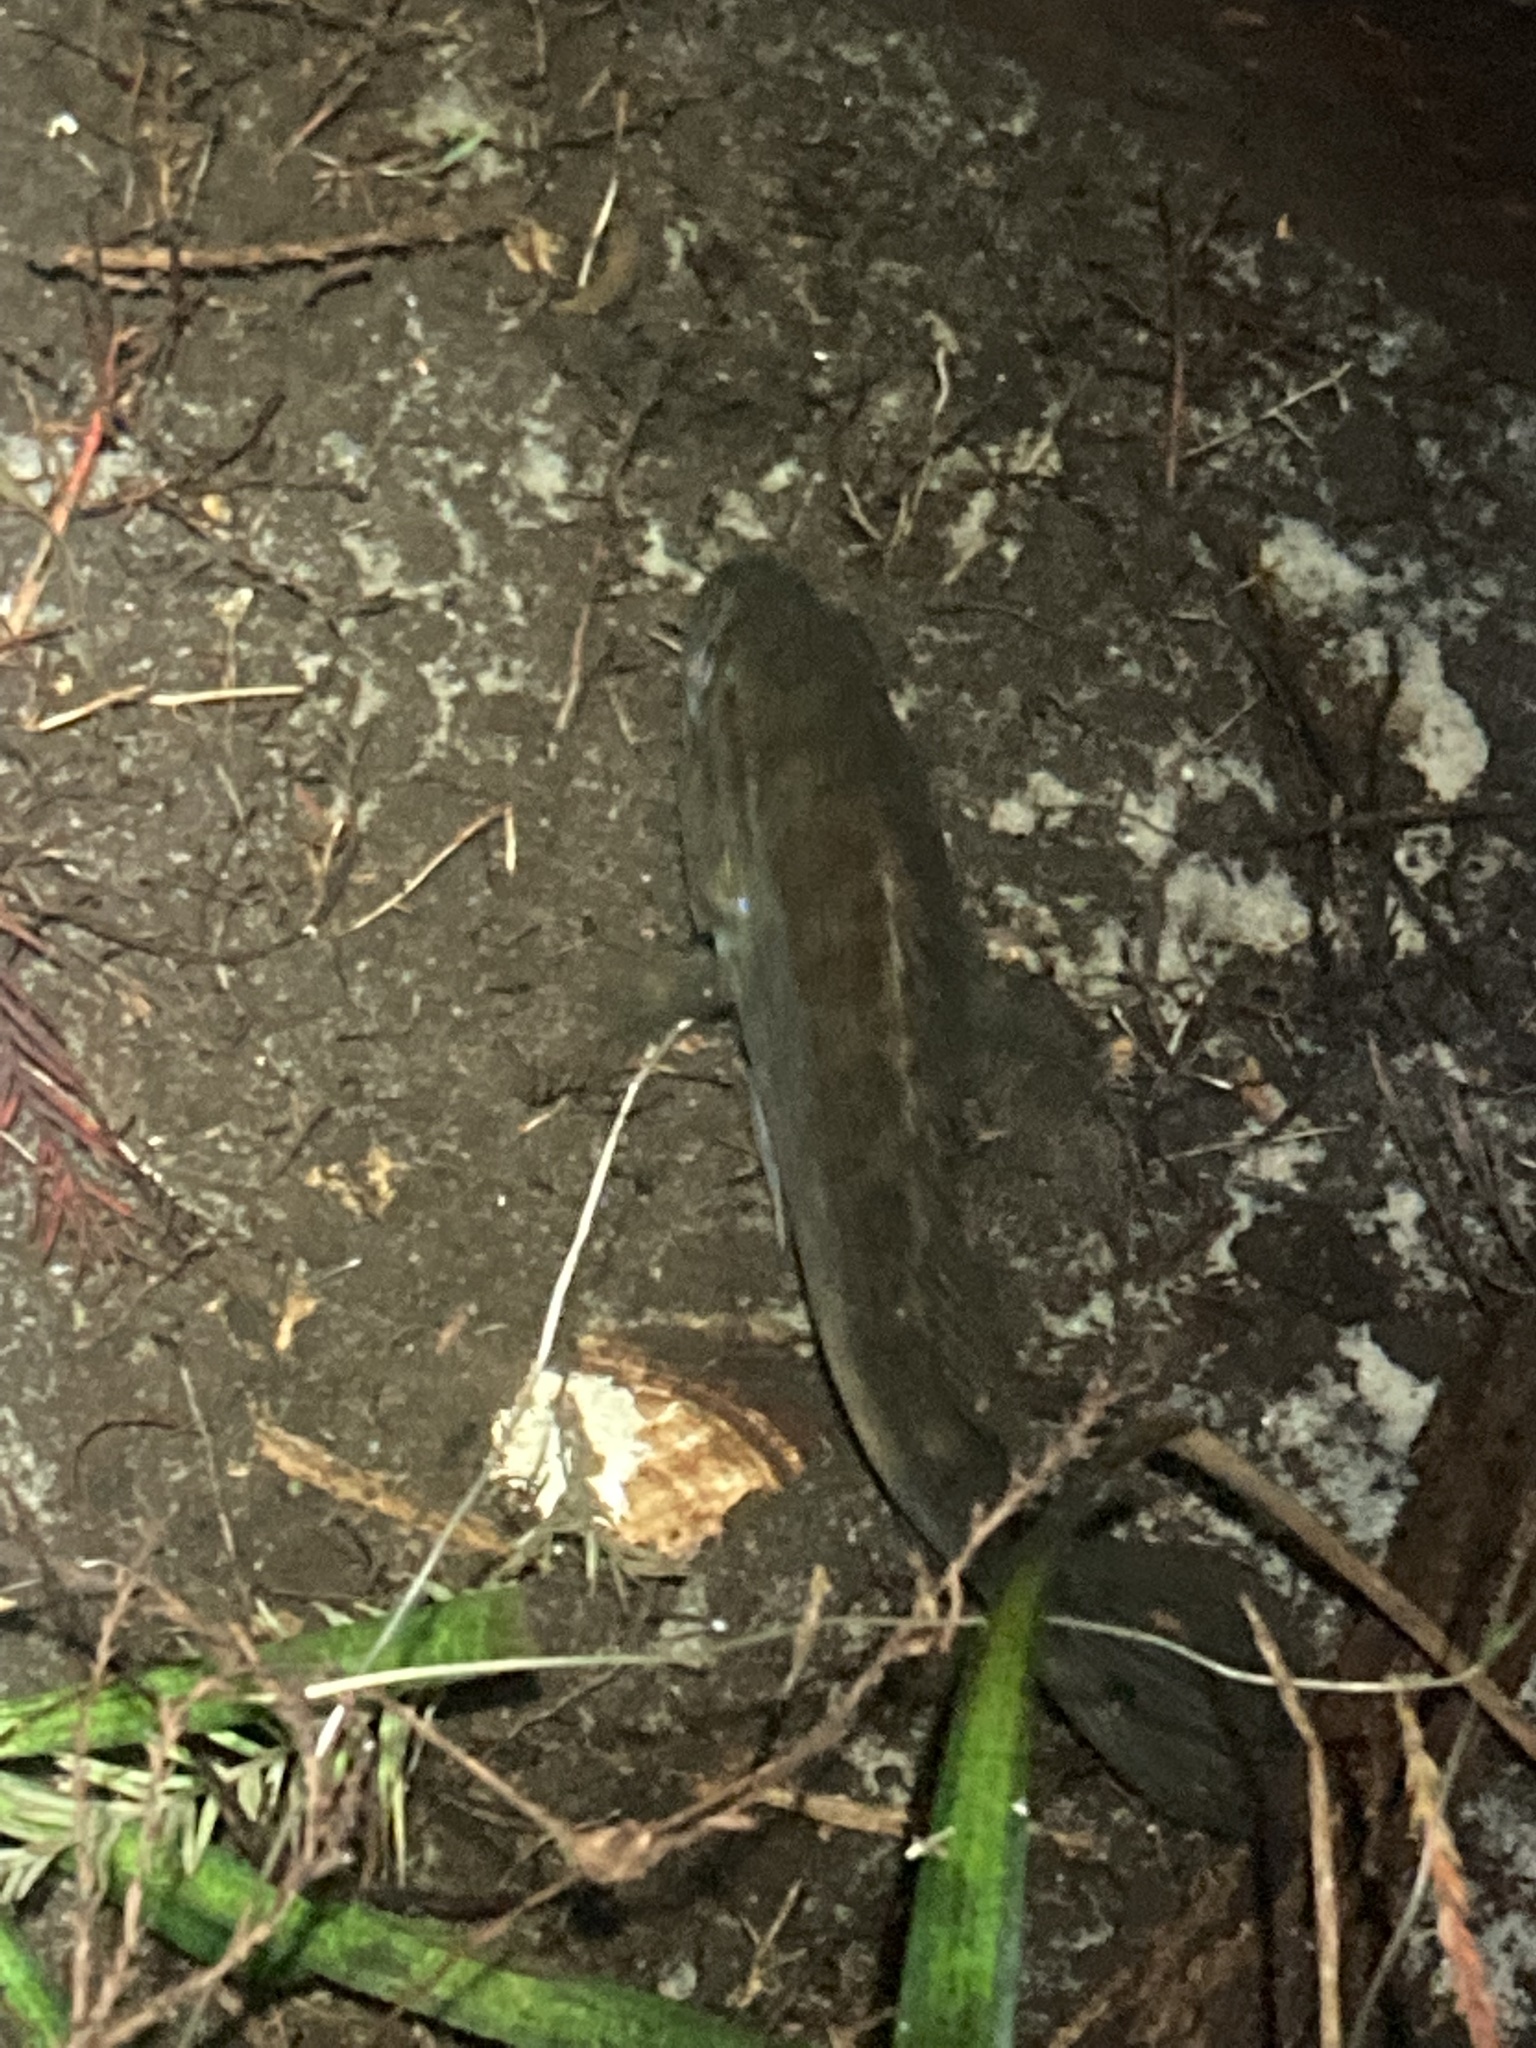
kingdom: Animalia
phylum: Chordata
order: Perciformes
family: Centrarchidae
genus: Lepomis
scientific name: Lepomis gulosus
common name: Warmouth
